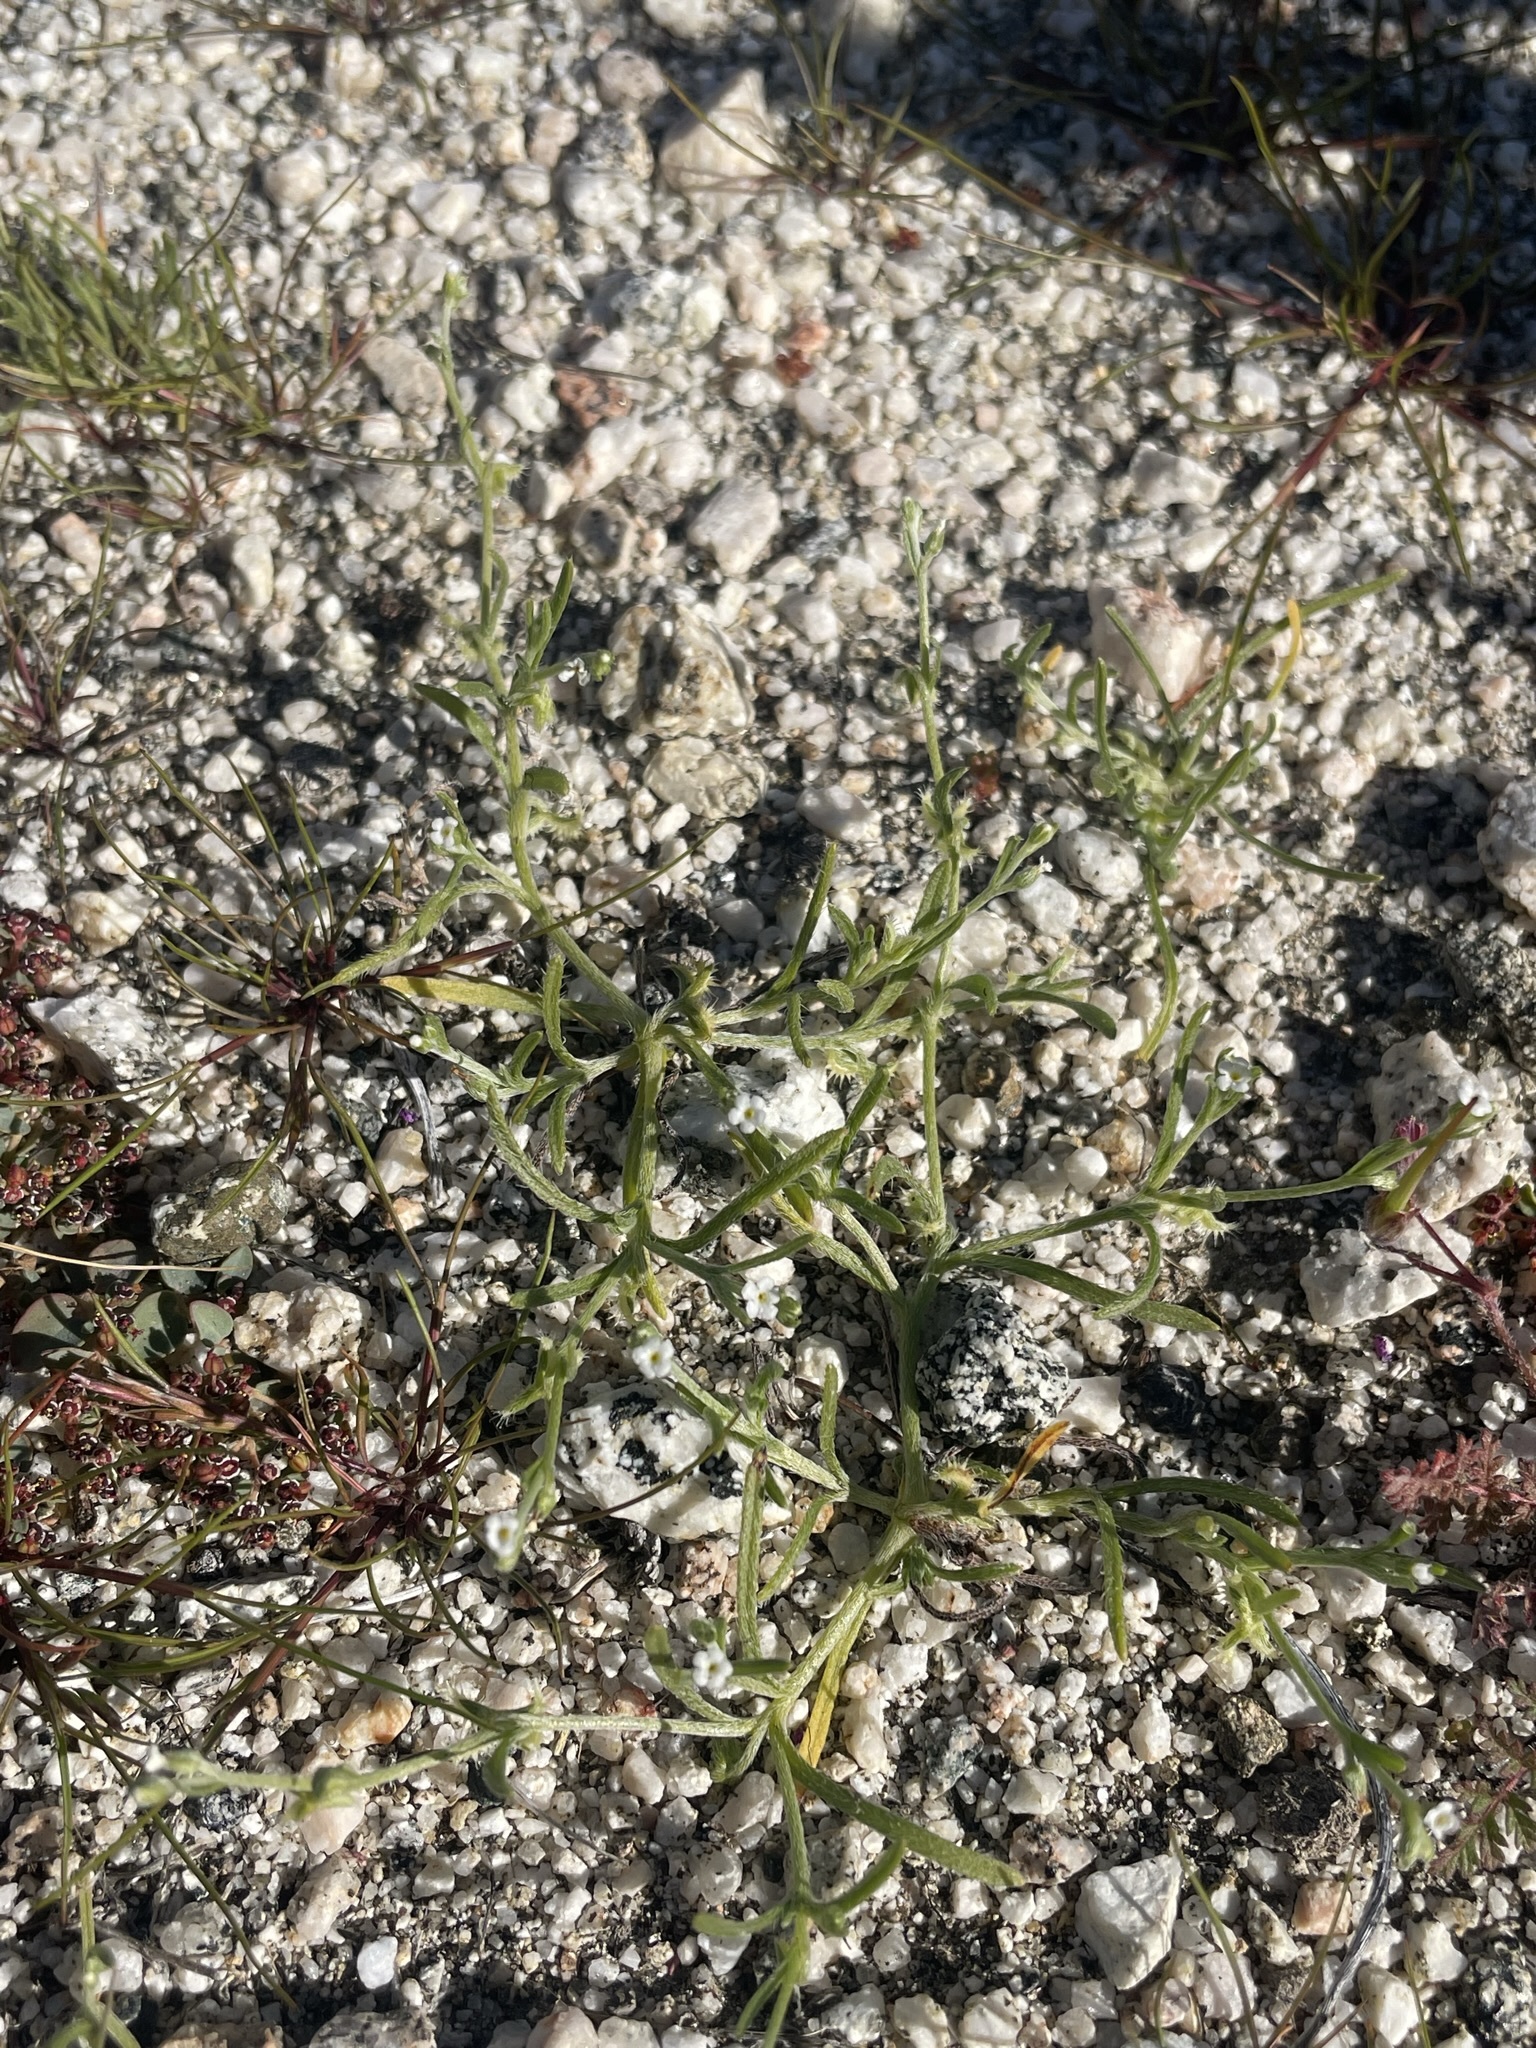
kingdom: Plantae
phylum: Tracheophyta
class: Magnoliopsida
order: Boraginales
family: Boraginaceae
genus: Pectocarya
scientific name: Pectocarya recurvata
